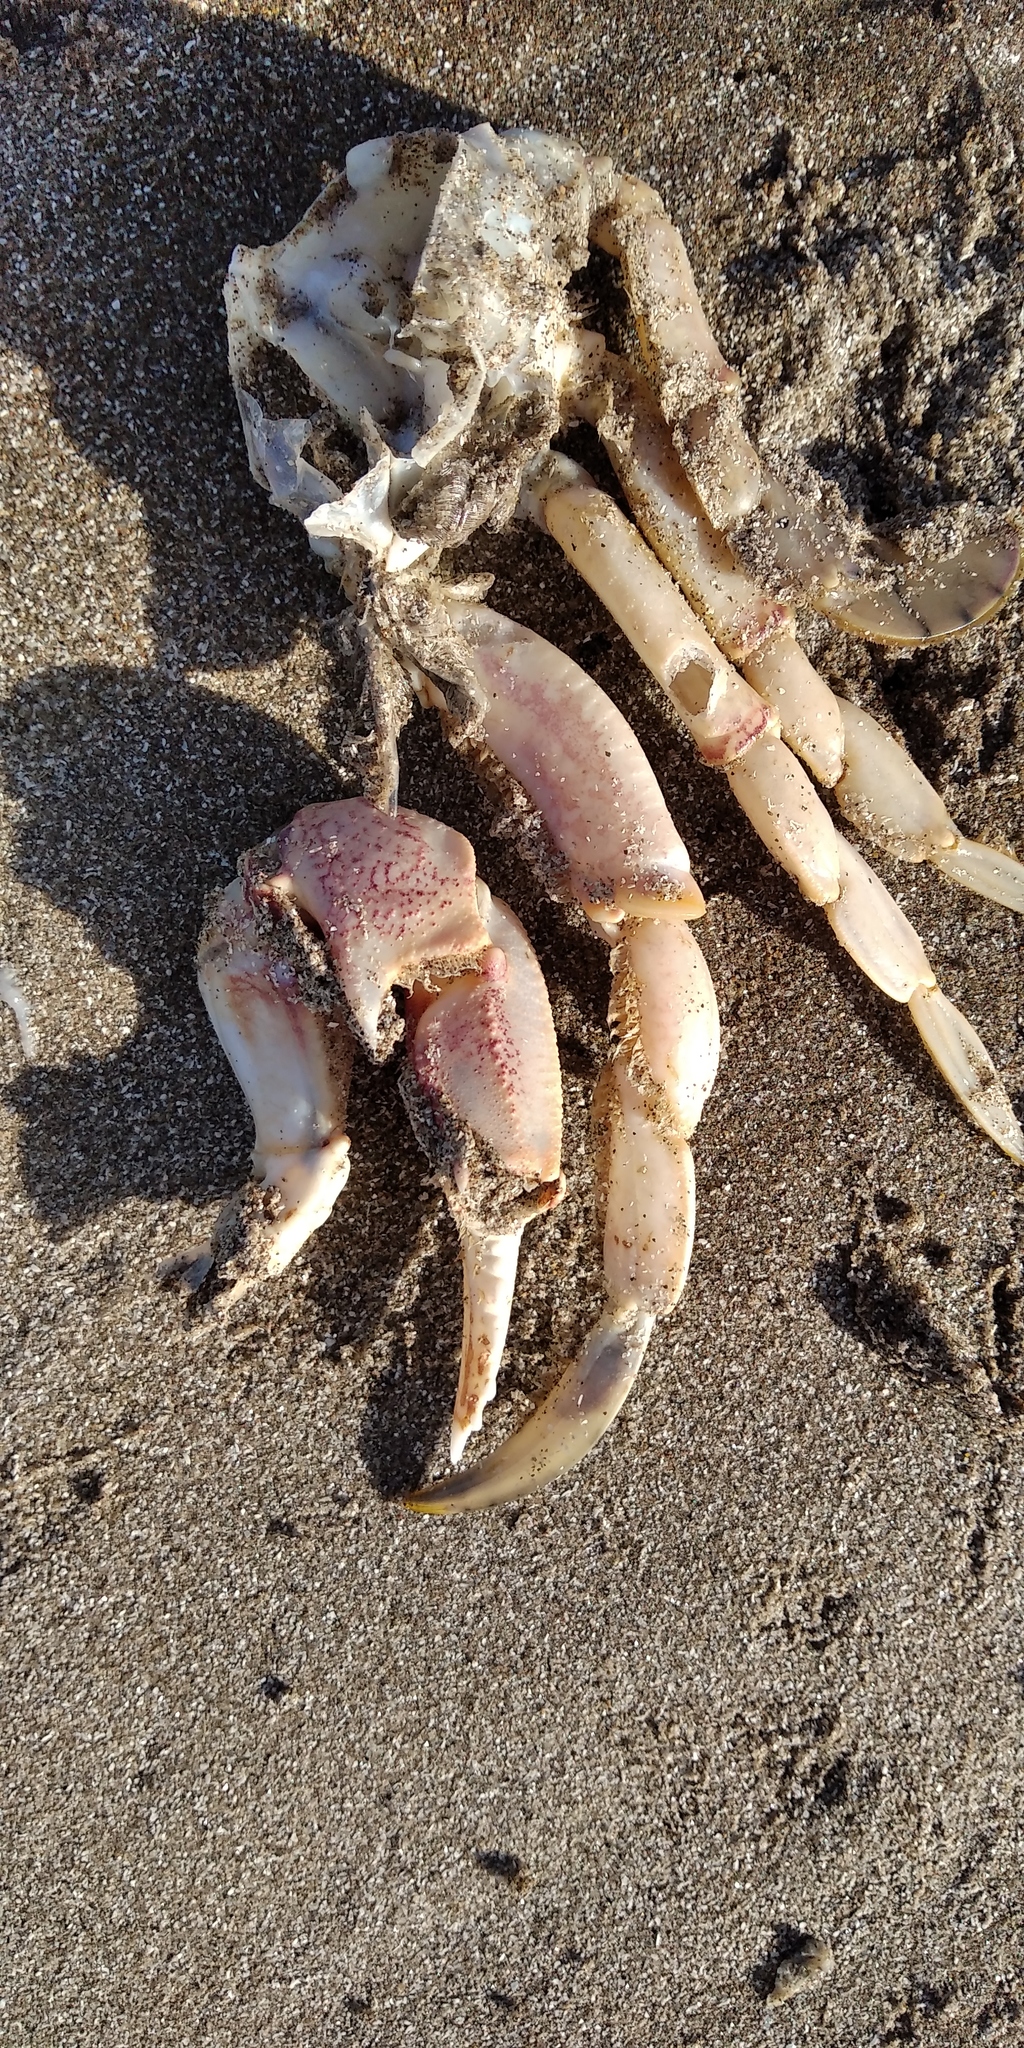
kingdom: Animalia
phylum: Arthropoda
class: Malacostraca
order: Decapoda
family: Ovalipidae
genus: Ovalipes
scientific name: Ovalipes trimaculatus
